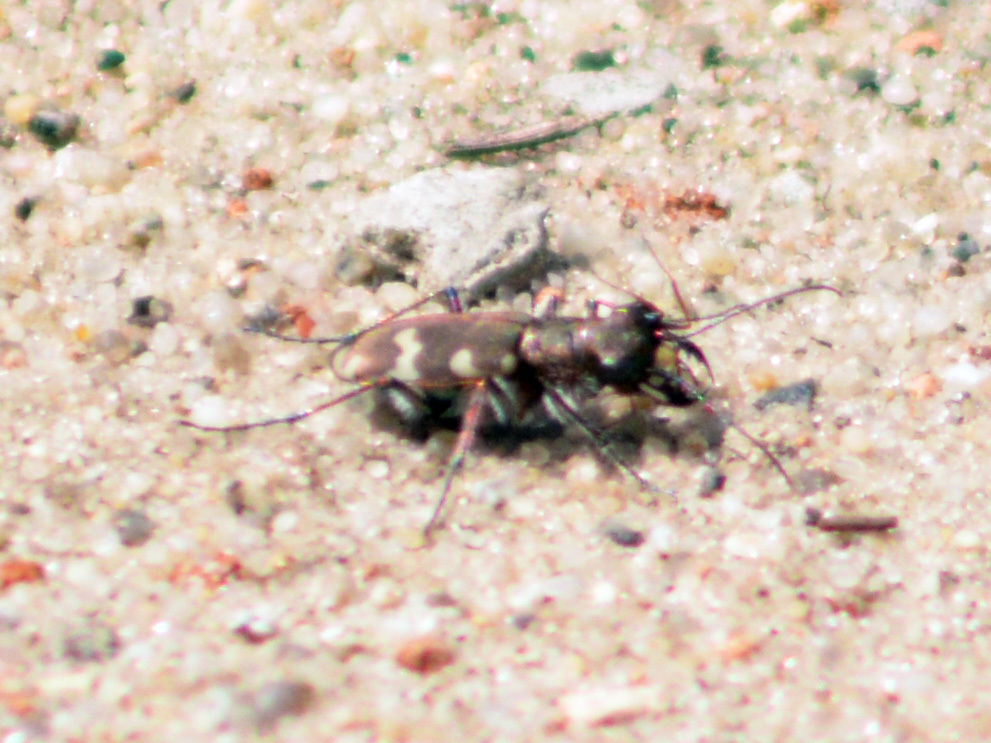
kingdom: Animalia
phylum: Arthropoda
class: Insecta
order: Coleoptera
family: Carabidae
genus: Cicindela
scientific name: Cicindela hybrida
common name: Northern dune tiger beetle
